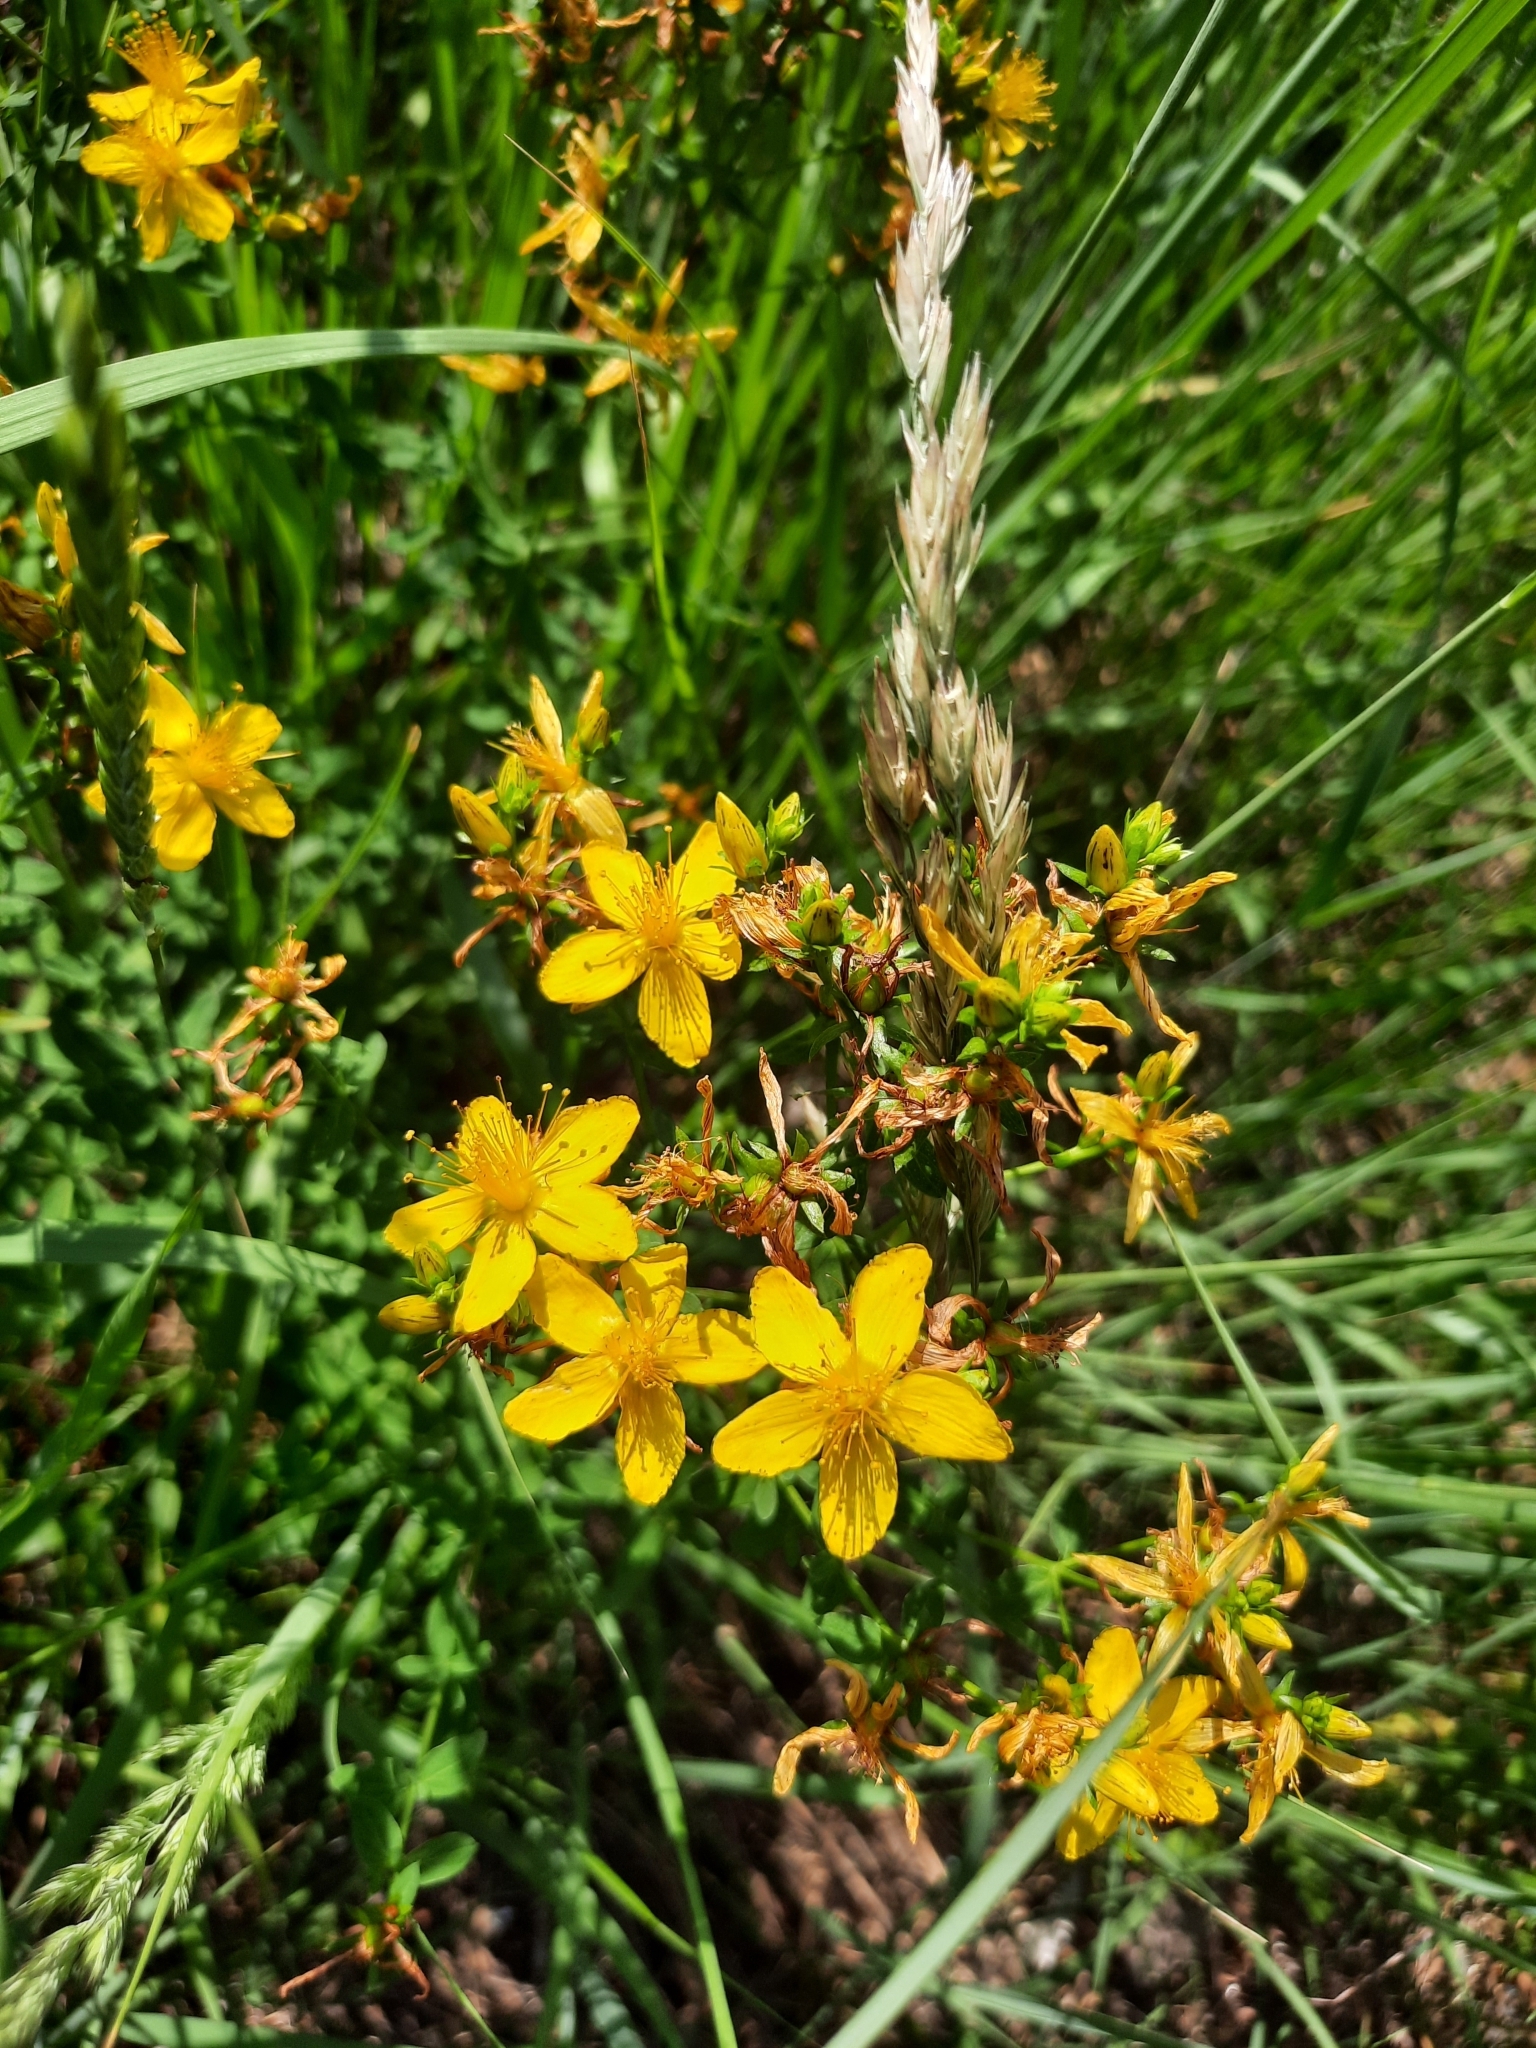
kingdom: Plantae
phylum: Tracheophyta
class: Magnoliopsida
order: Malpighiales
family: Hypericaceae
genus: Hypericum
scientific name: Hypericum perforatum
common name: Common st. johnswort
